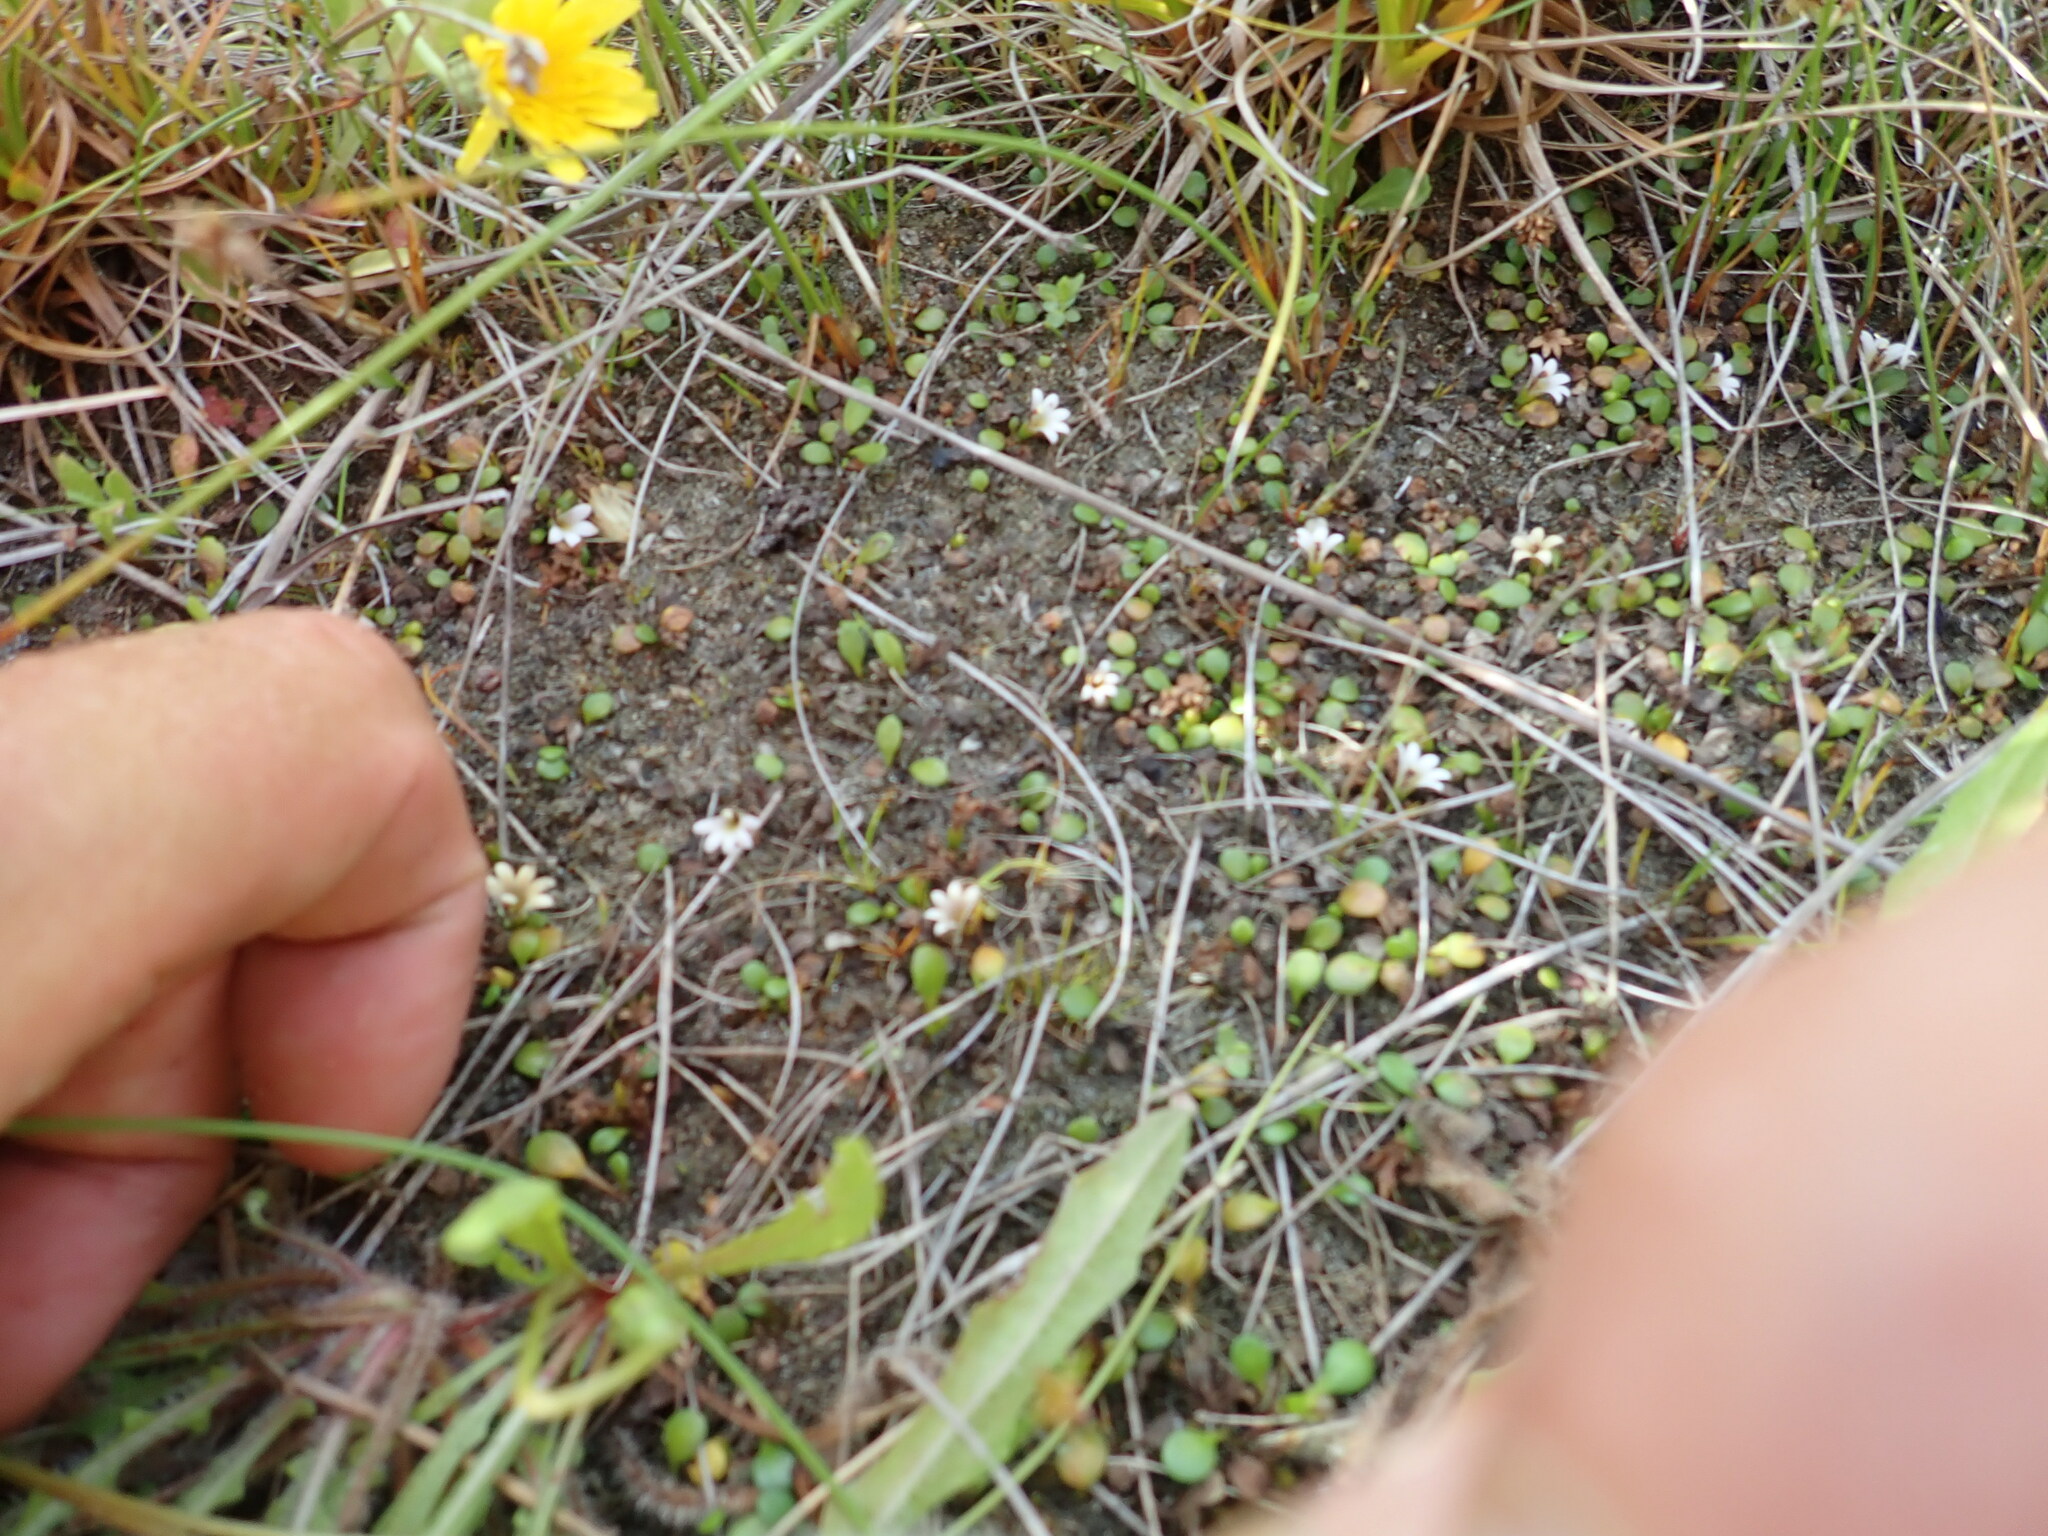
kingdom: Plantae
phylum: Tracheophyta
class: Magnoliopsida
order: Asterales
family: Goodeniaceae
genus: Goodenia
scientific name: Goodenia heenanii
